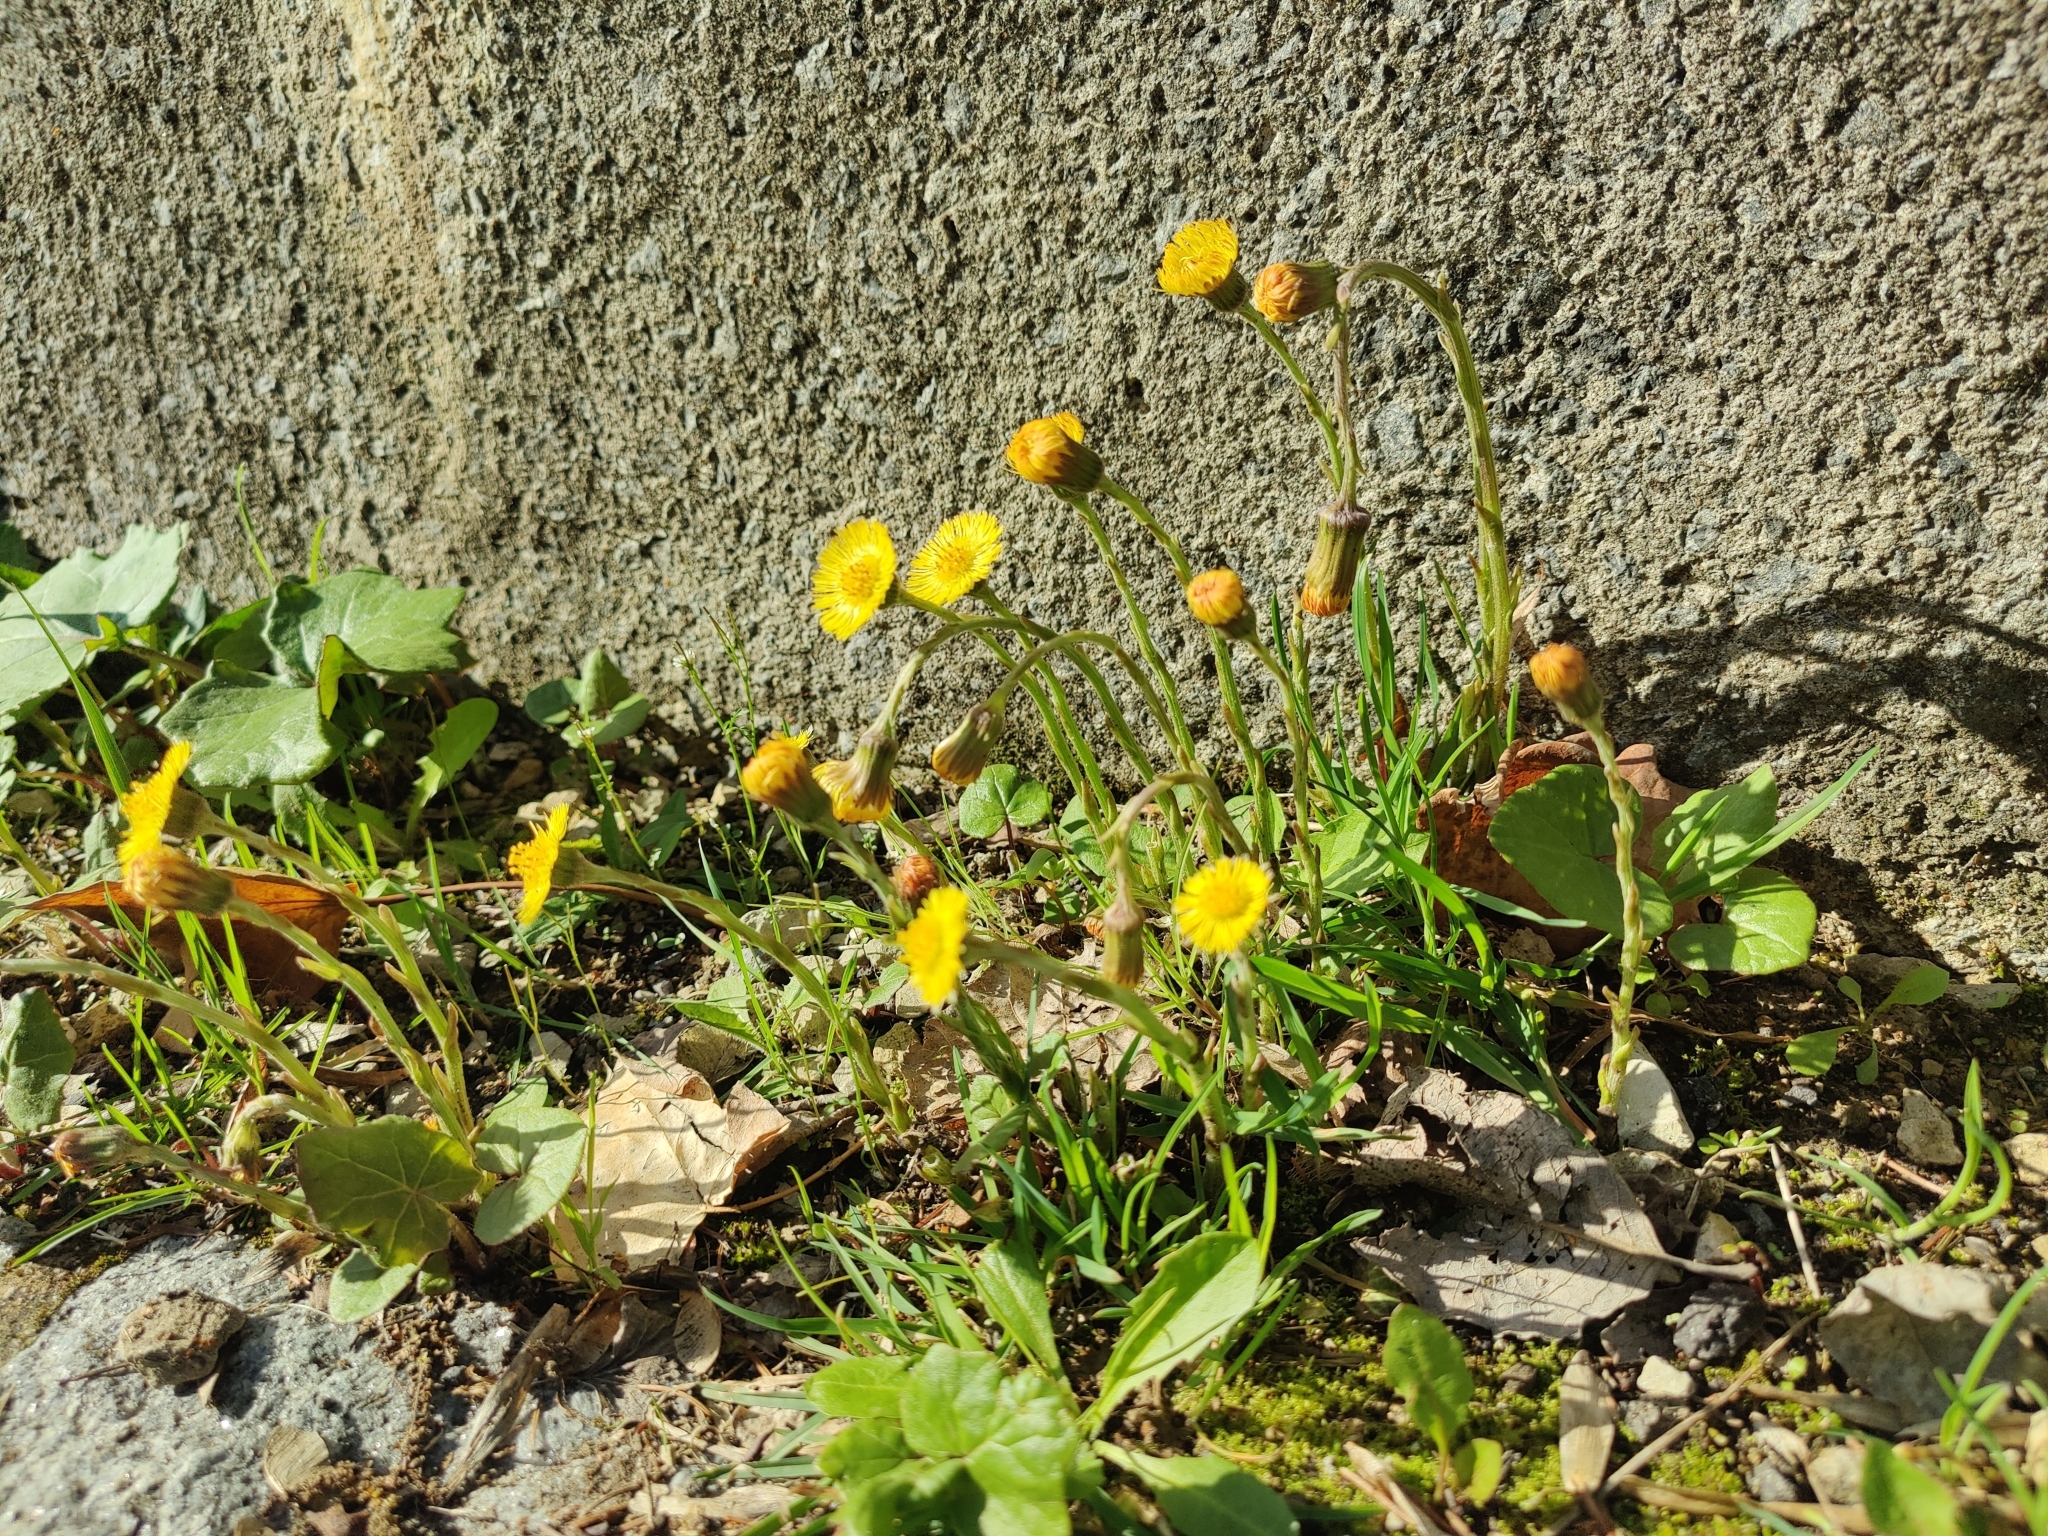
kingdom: Plantae
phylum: Tracheophyta
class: Magnoliopsida
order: Asterales
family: Asteraceae
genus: Tussilago
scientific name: Tussilago farfara
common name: Coltsfoot
